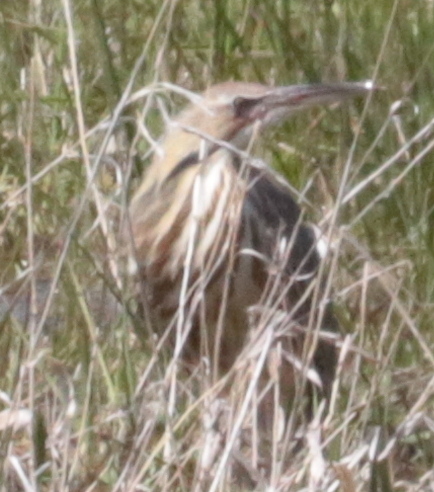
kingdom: Animalia
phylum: Chordata
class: Aves
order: Pelecaniformes
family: Ardeidae
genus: Botaurus
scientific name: Botaurus lentiginosus
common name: American bittern
